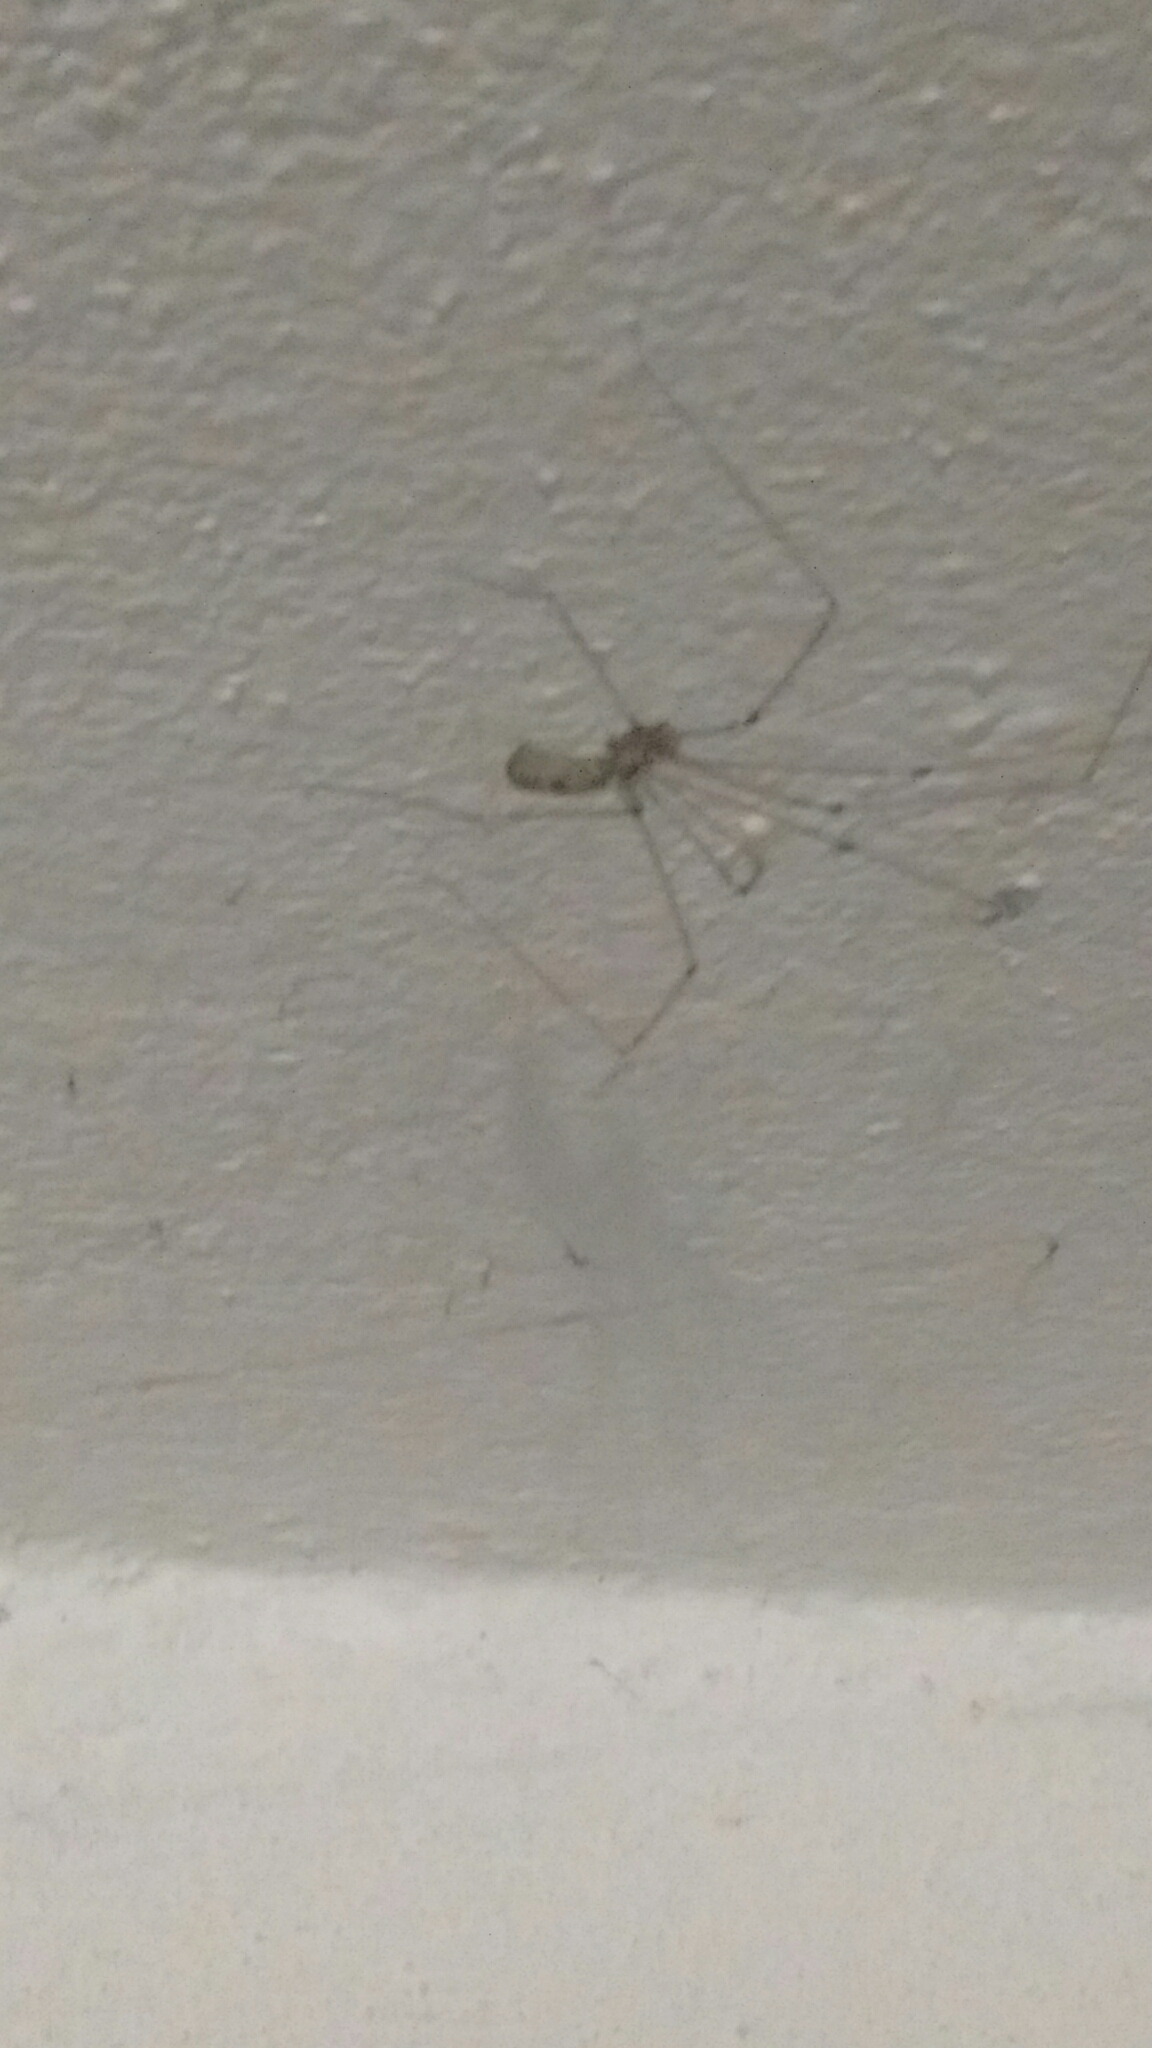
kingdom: Animalia
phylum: Arthropoda
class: Arachnida
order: Araneae
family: Pholcidae
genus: Pholcus
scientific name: Pholcus phalangioides
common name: Longbodied cellar spider
